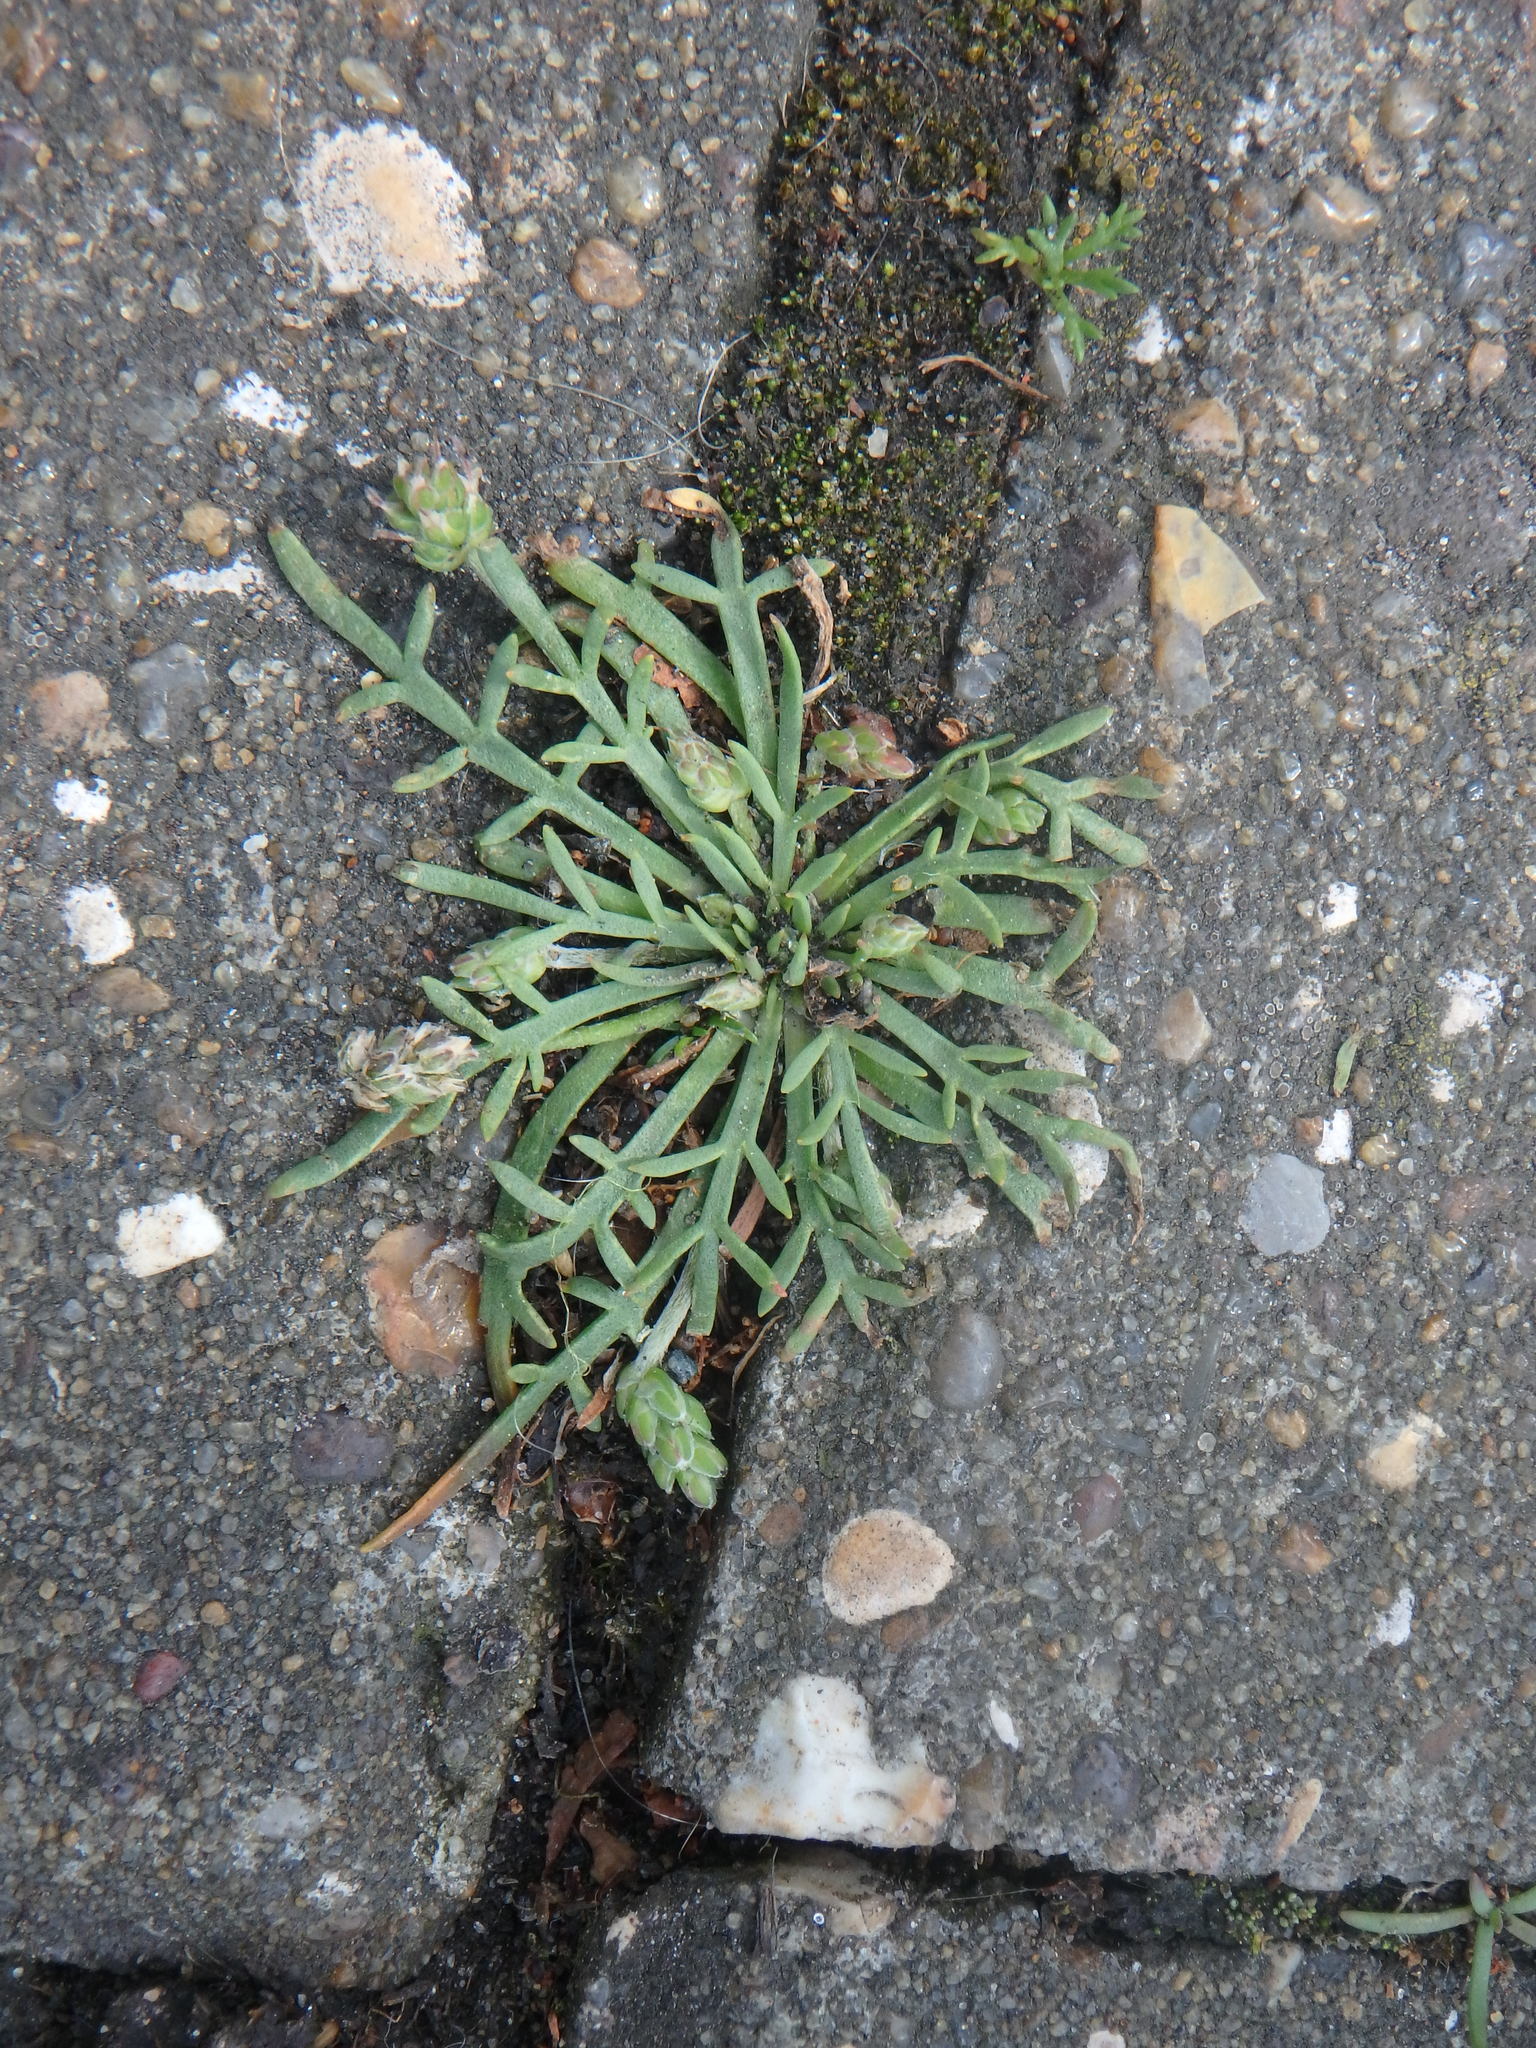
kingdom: Plantae
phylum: Tracheophyta
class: Magnoliopsida
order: Lamiales
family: Plantaginaceae
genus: Plantago
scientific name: Plantago coronopus
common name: Buck's-horn plantain
